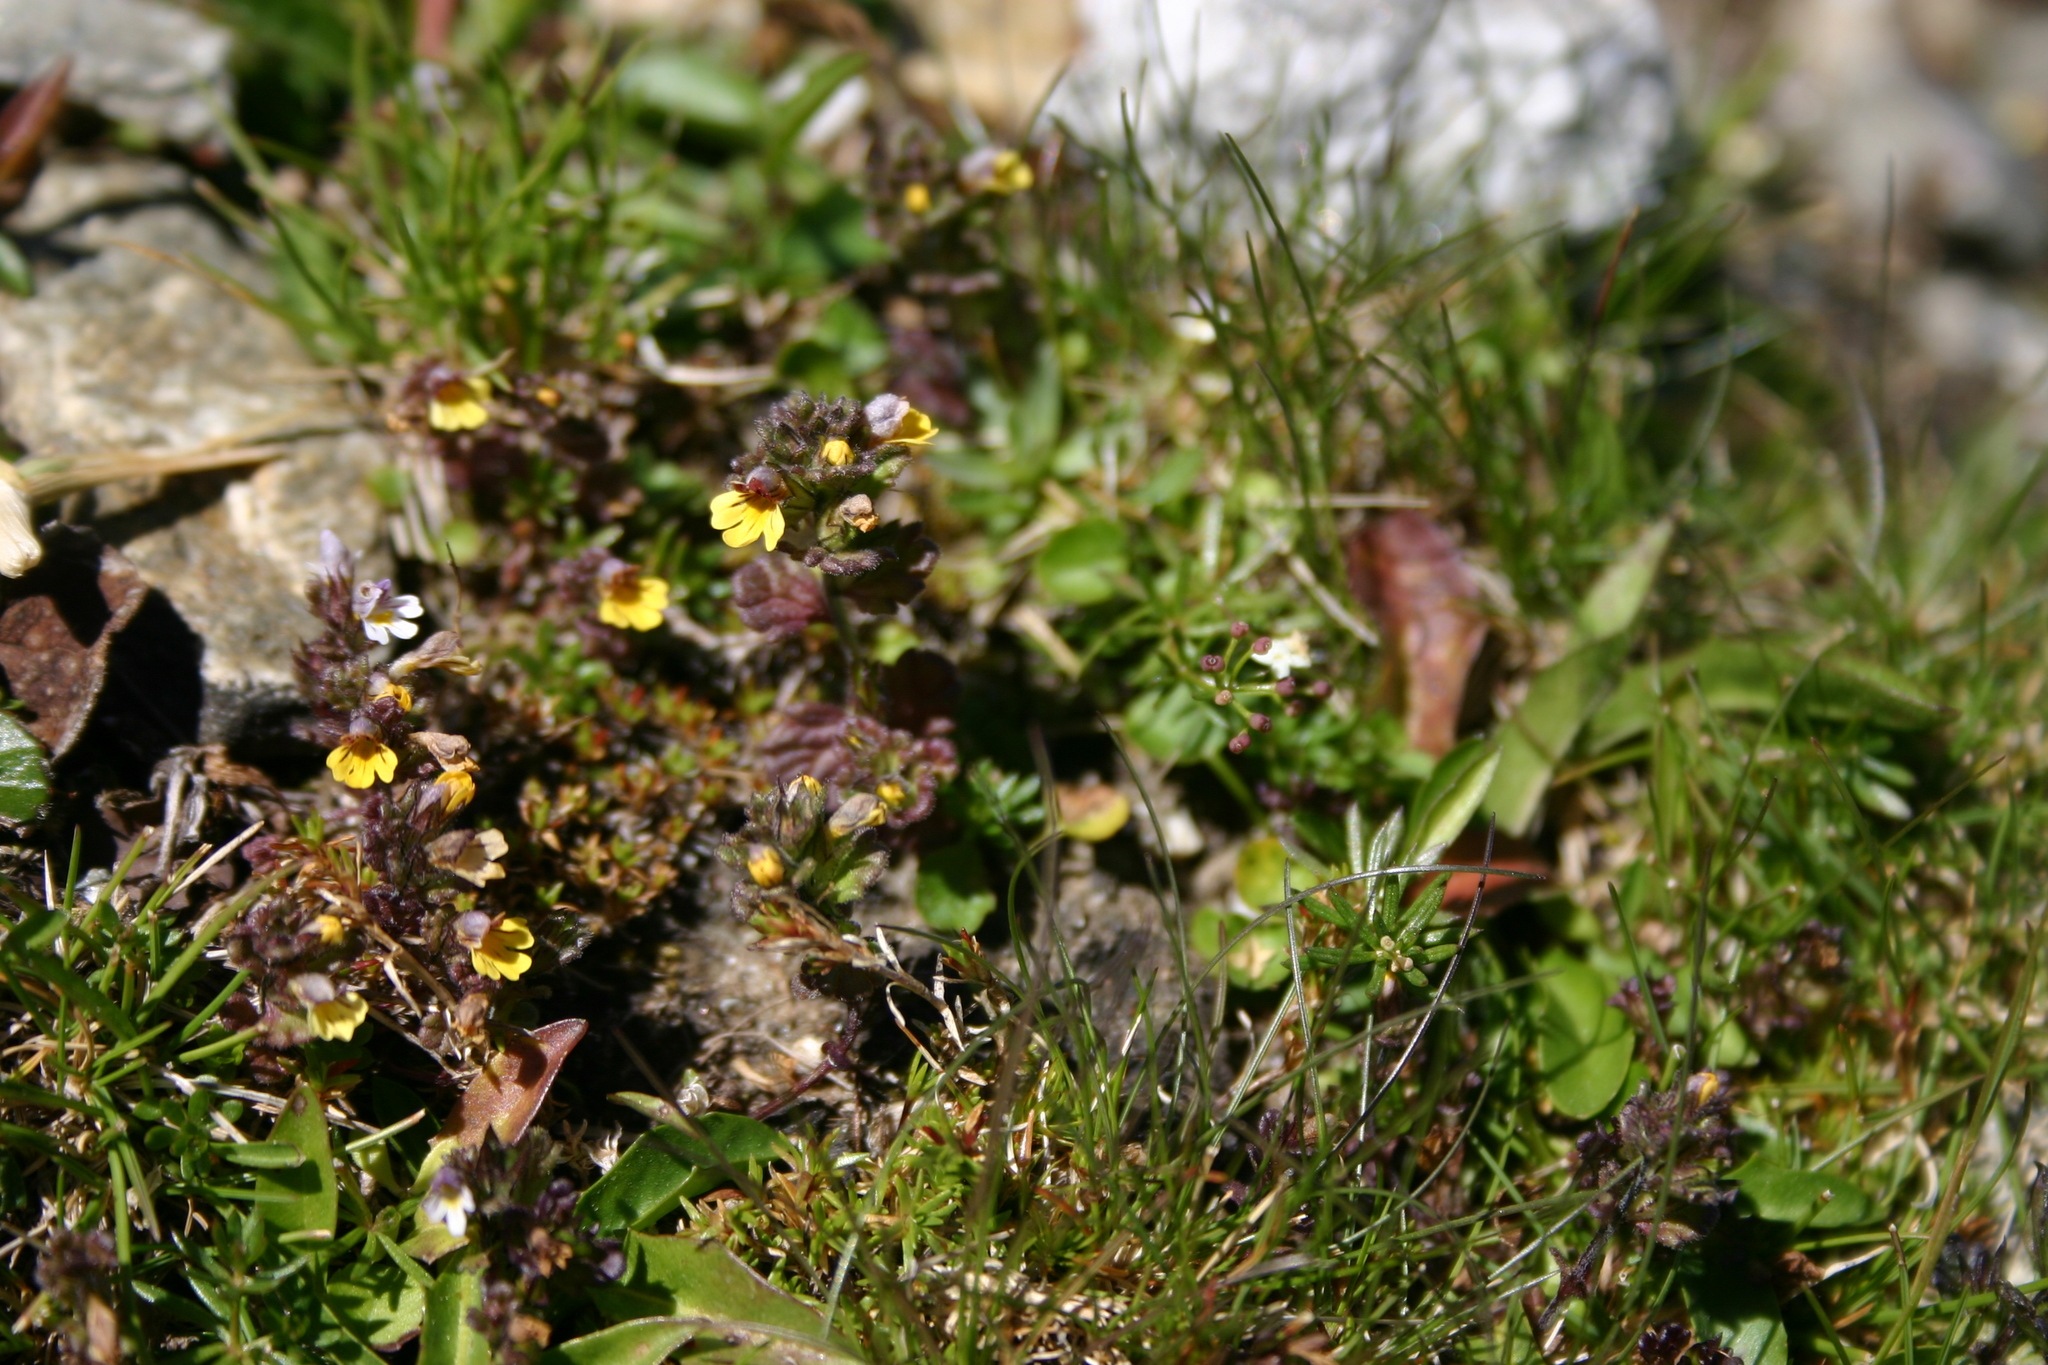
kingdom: Plantae
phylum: Tracheophyta
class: Magnoliopsida
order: Lamiales
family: Orobanchaceae
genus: Euphrasia
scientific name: Euphrasia minima
